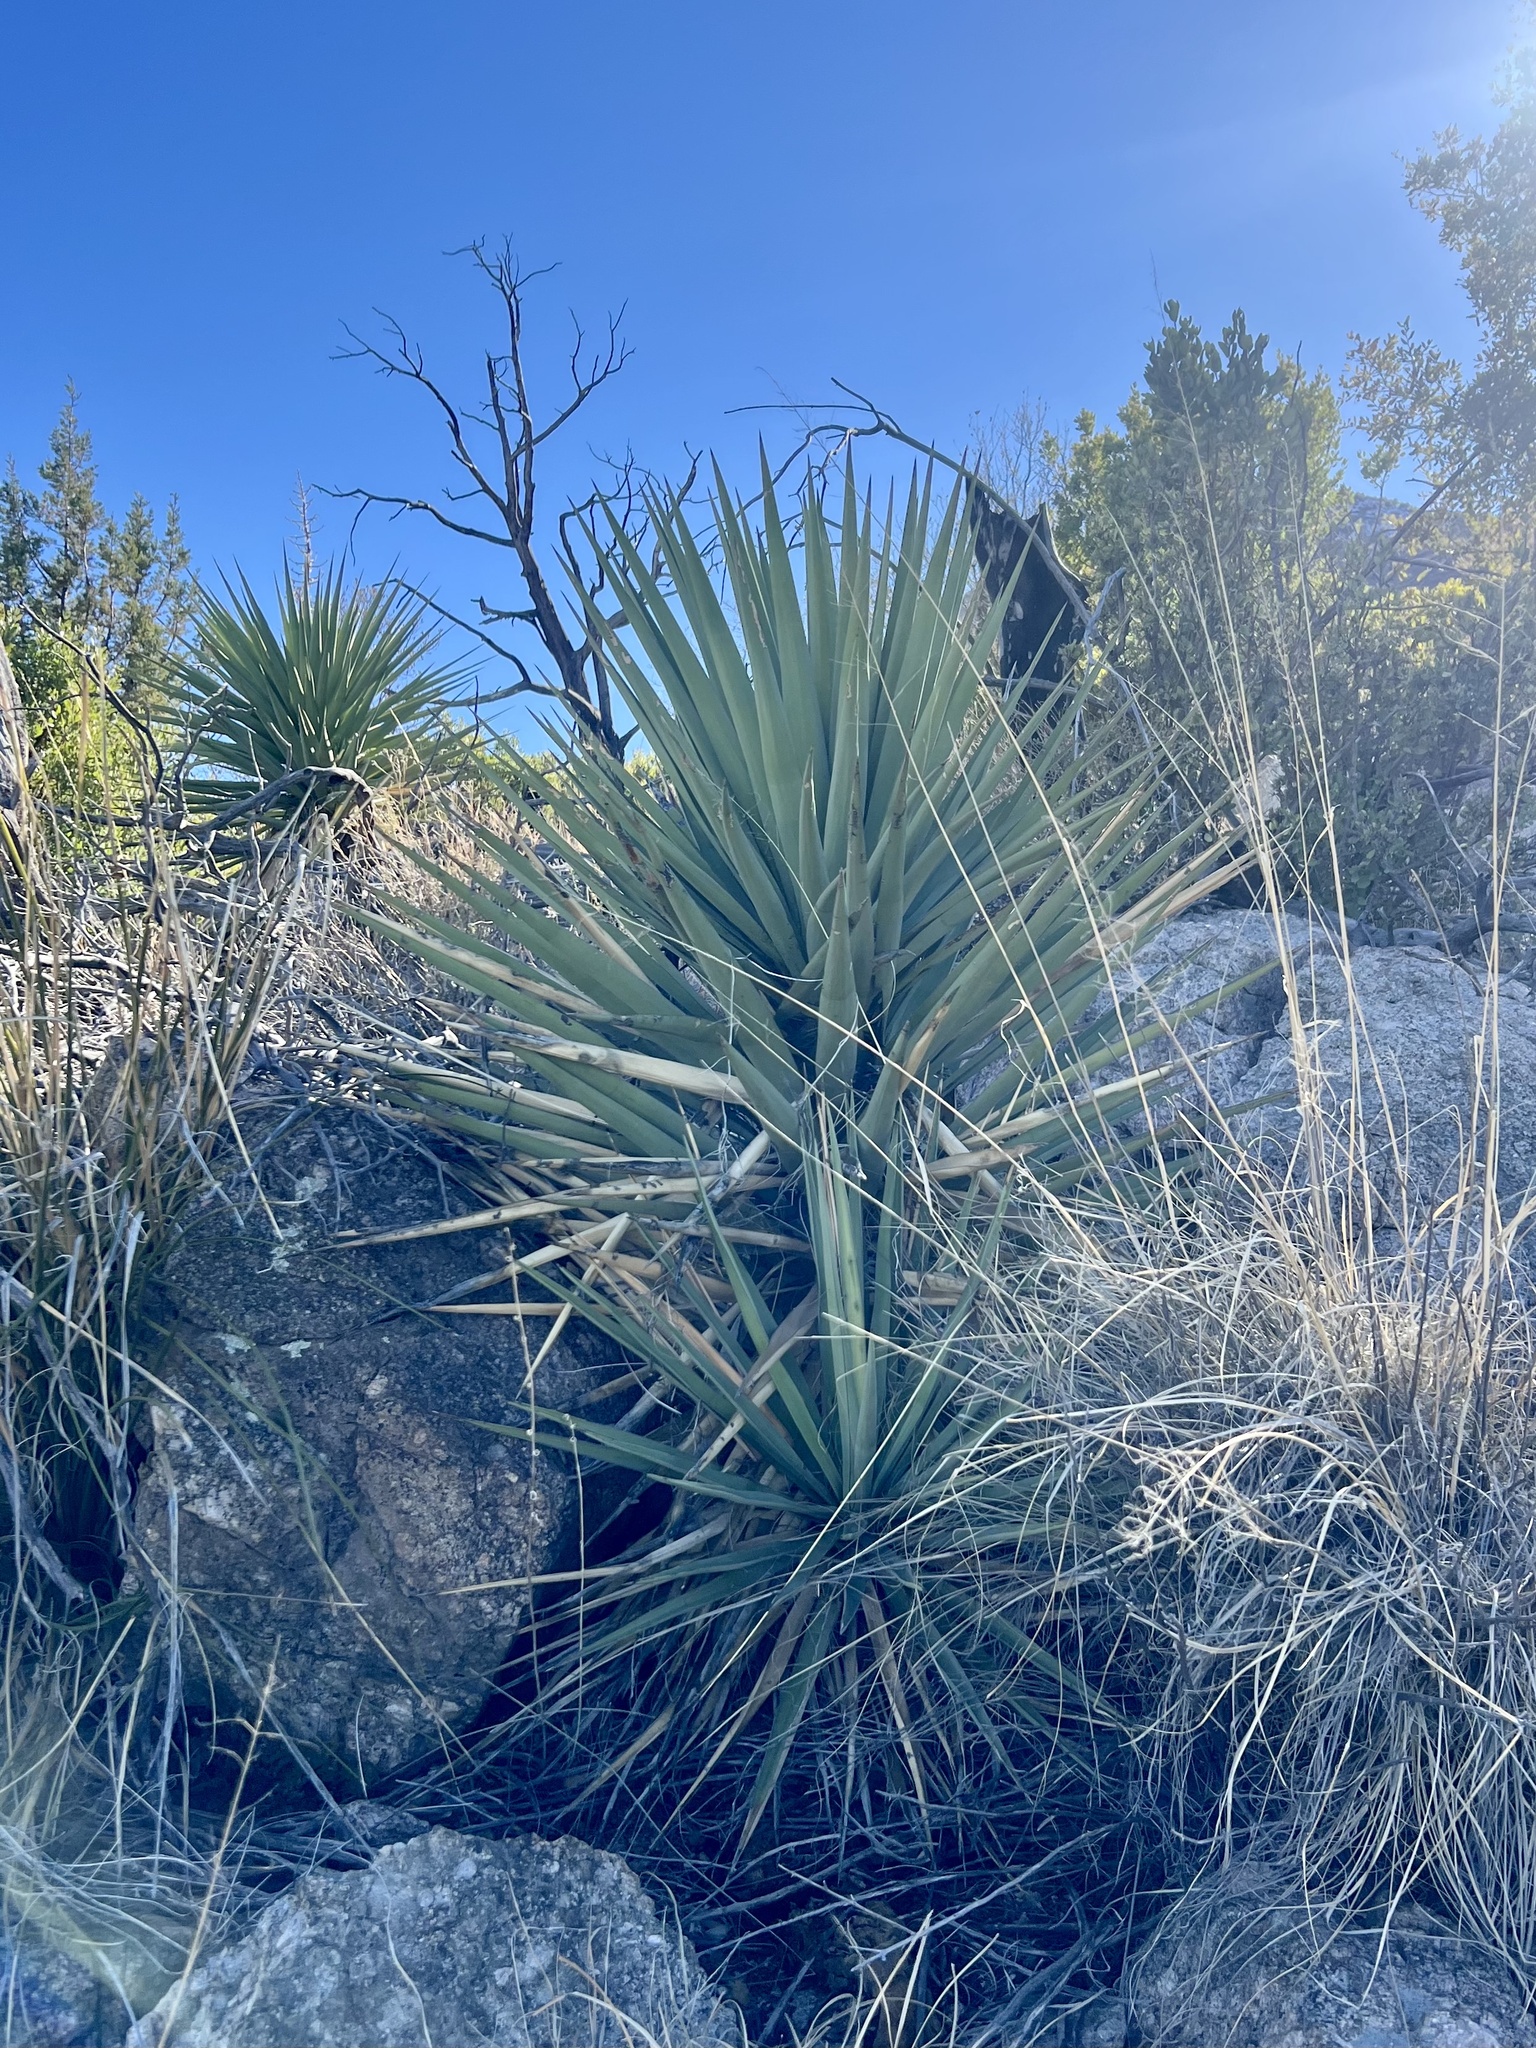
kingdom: Plantae
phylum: Tracheophyta
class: Liliopsida
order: Asparagales
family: Asparagaceae
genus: Yucca
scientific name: Yucca madrensis
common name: Hoary yucca
